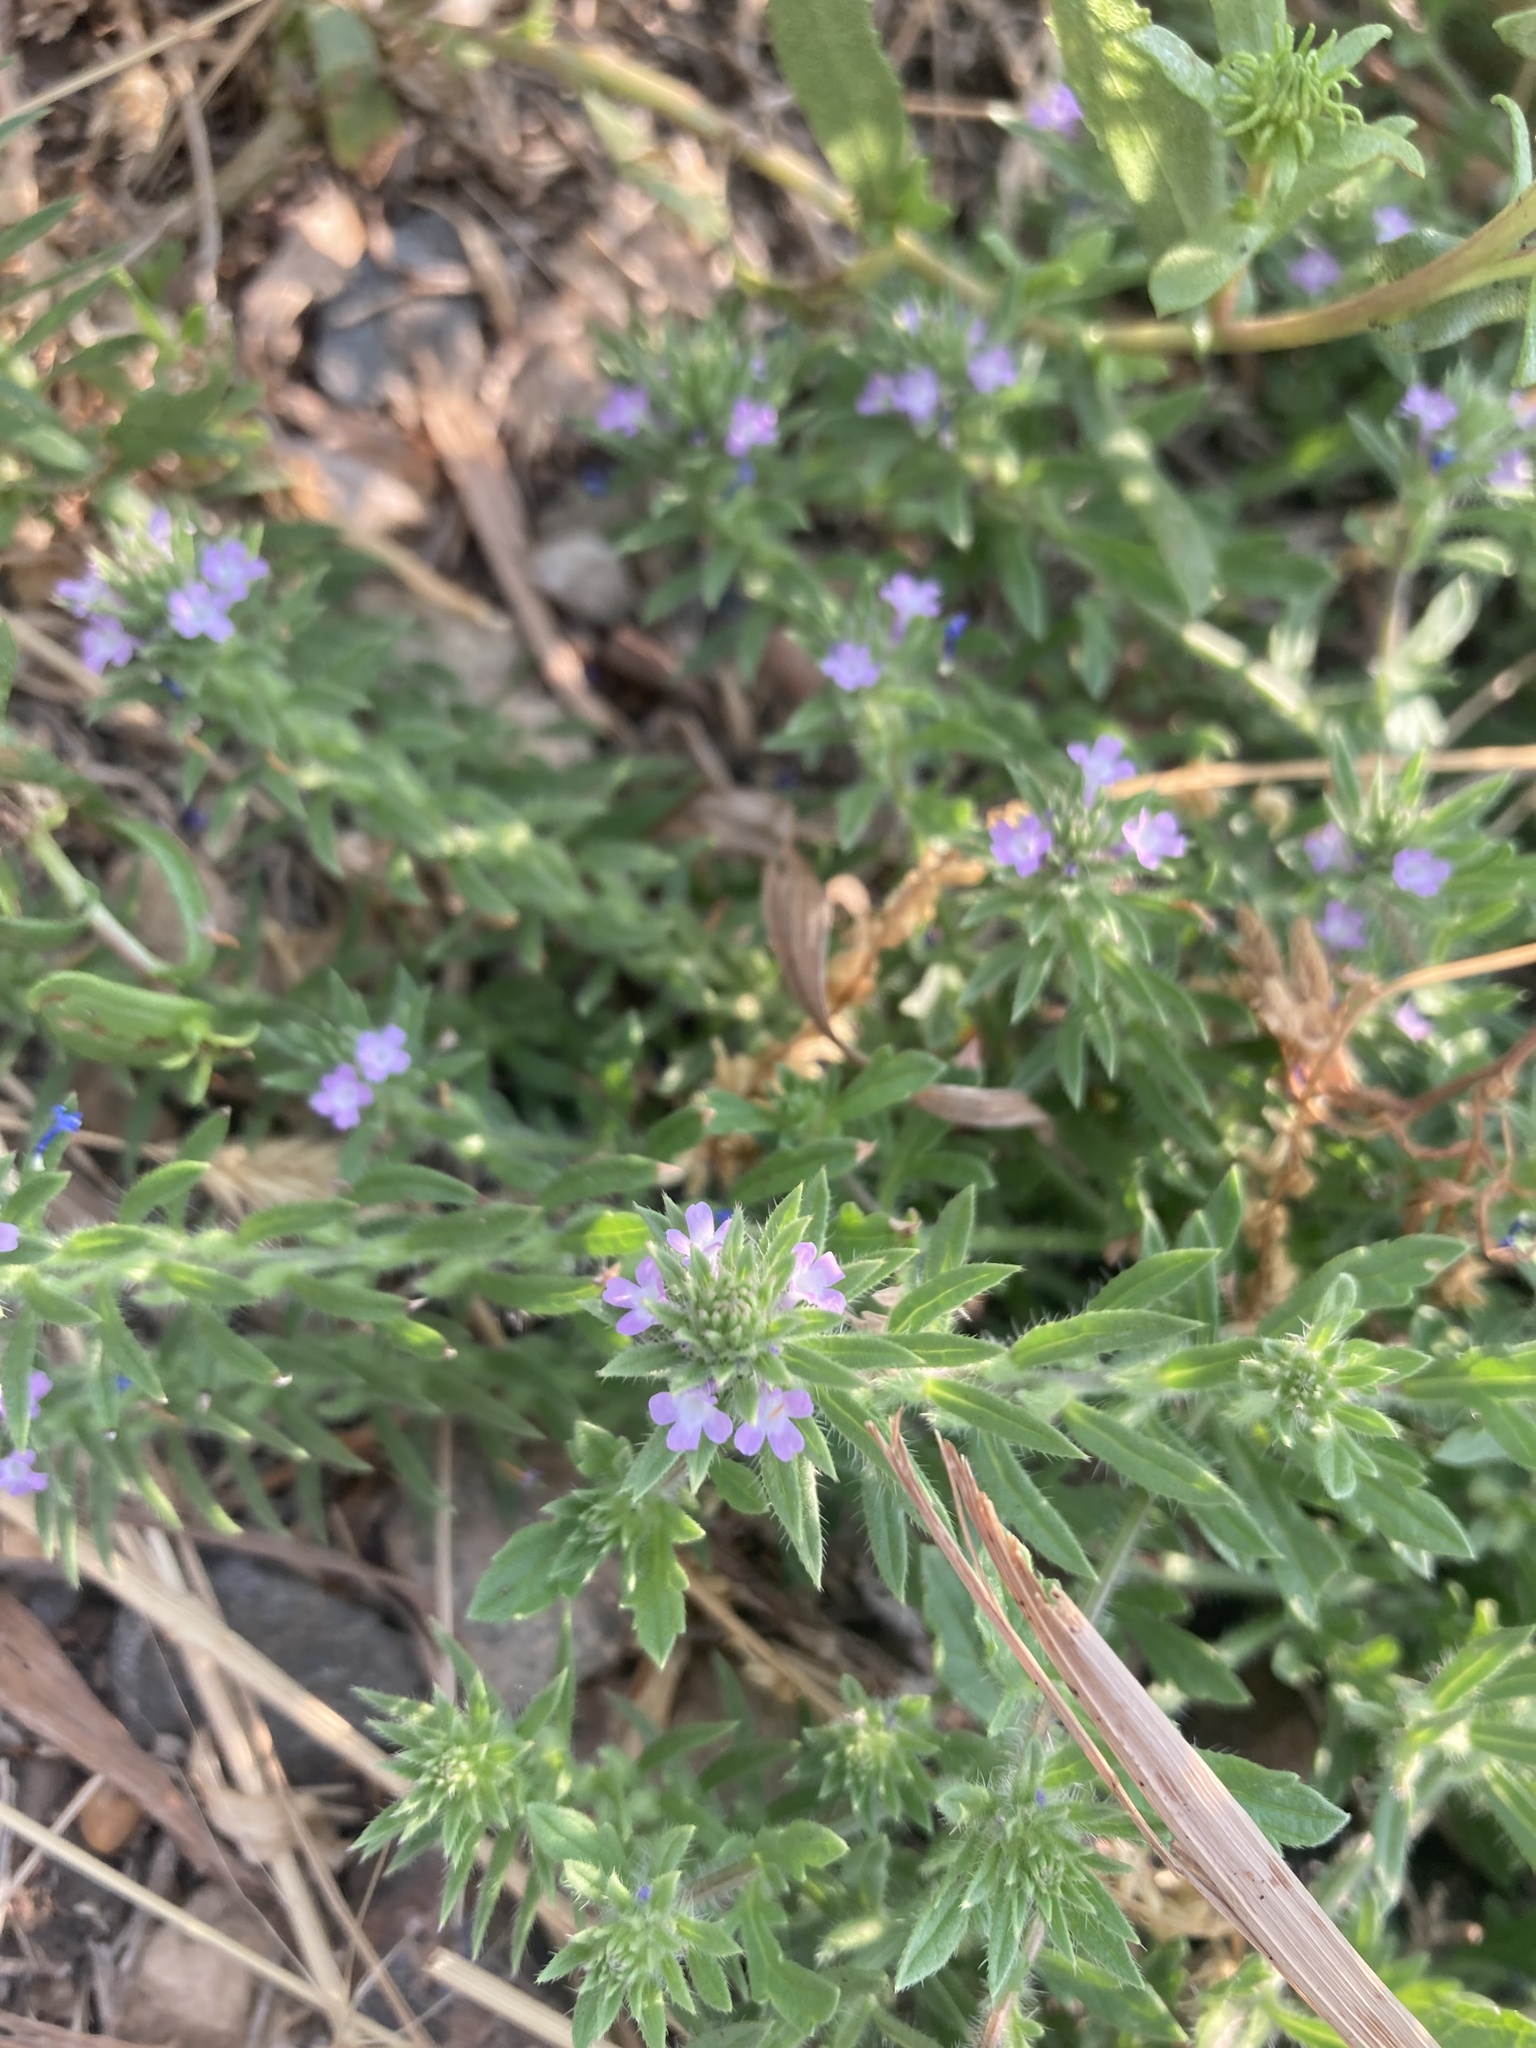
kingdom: Plantae
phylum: Tracheophyta
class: Magnoliopsida
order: Lamiales
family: Verbenaceae
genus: Verbena
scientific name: Verbena bracteata
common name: Bracted vervain
